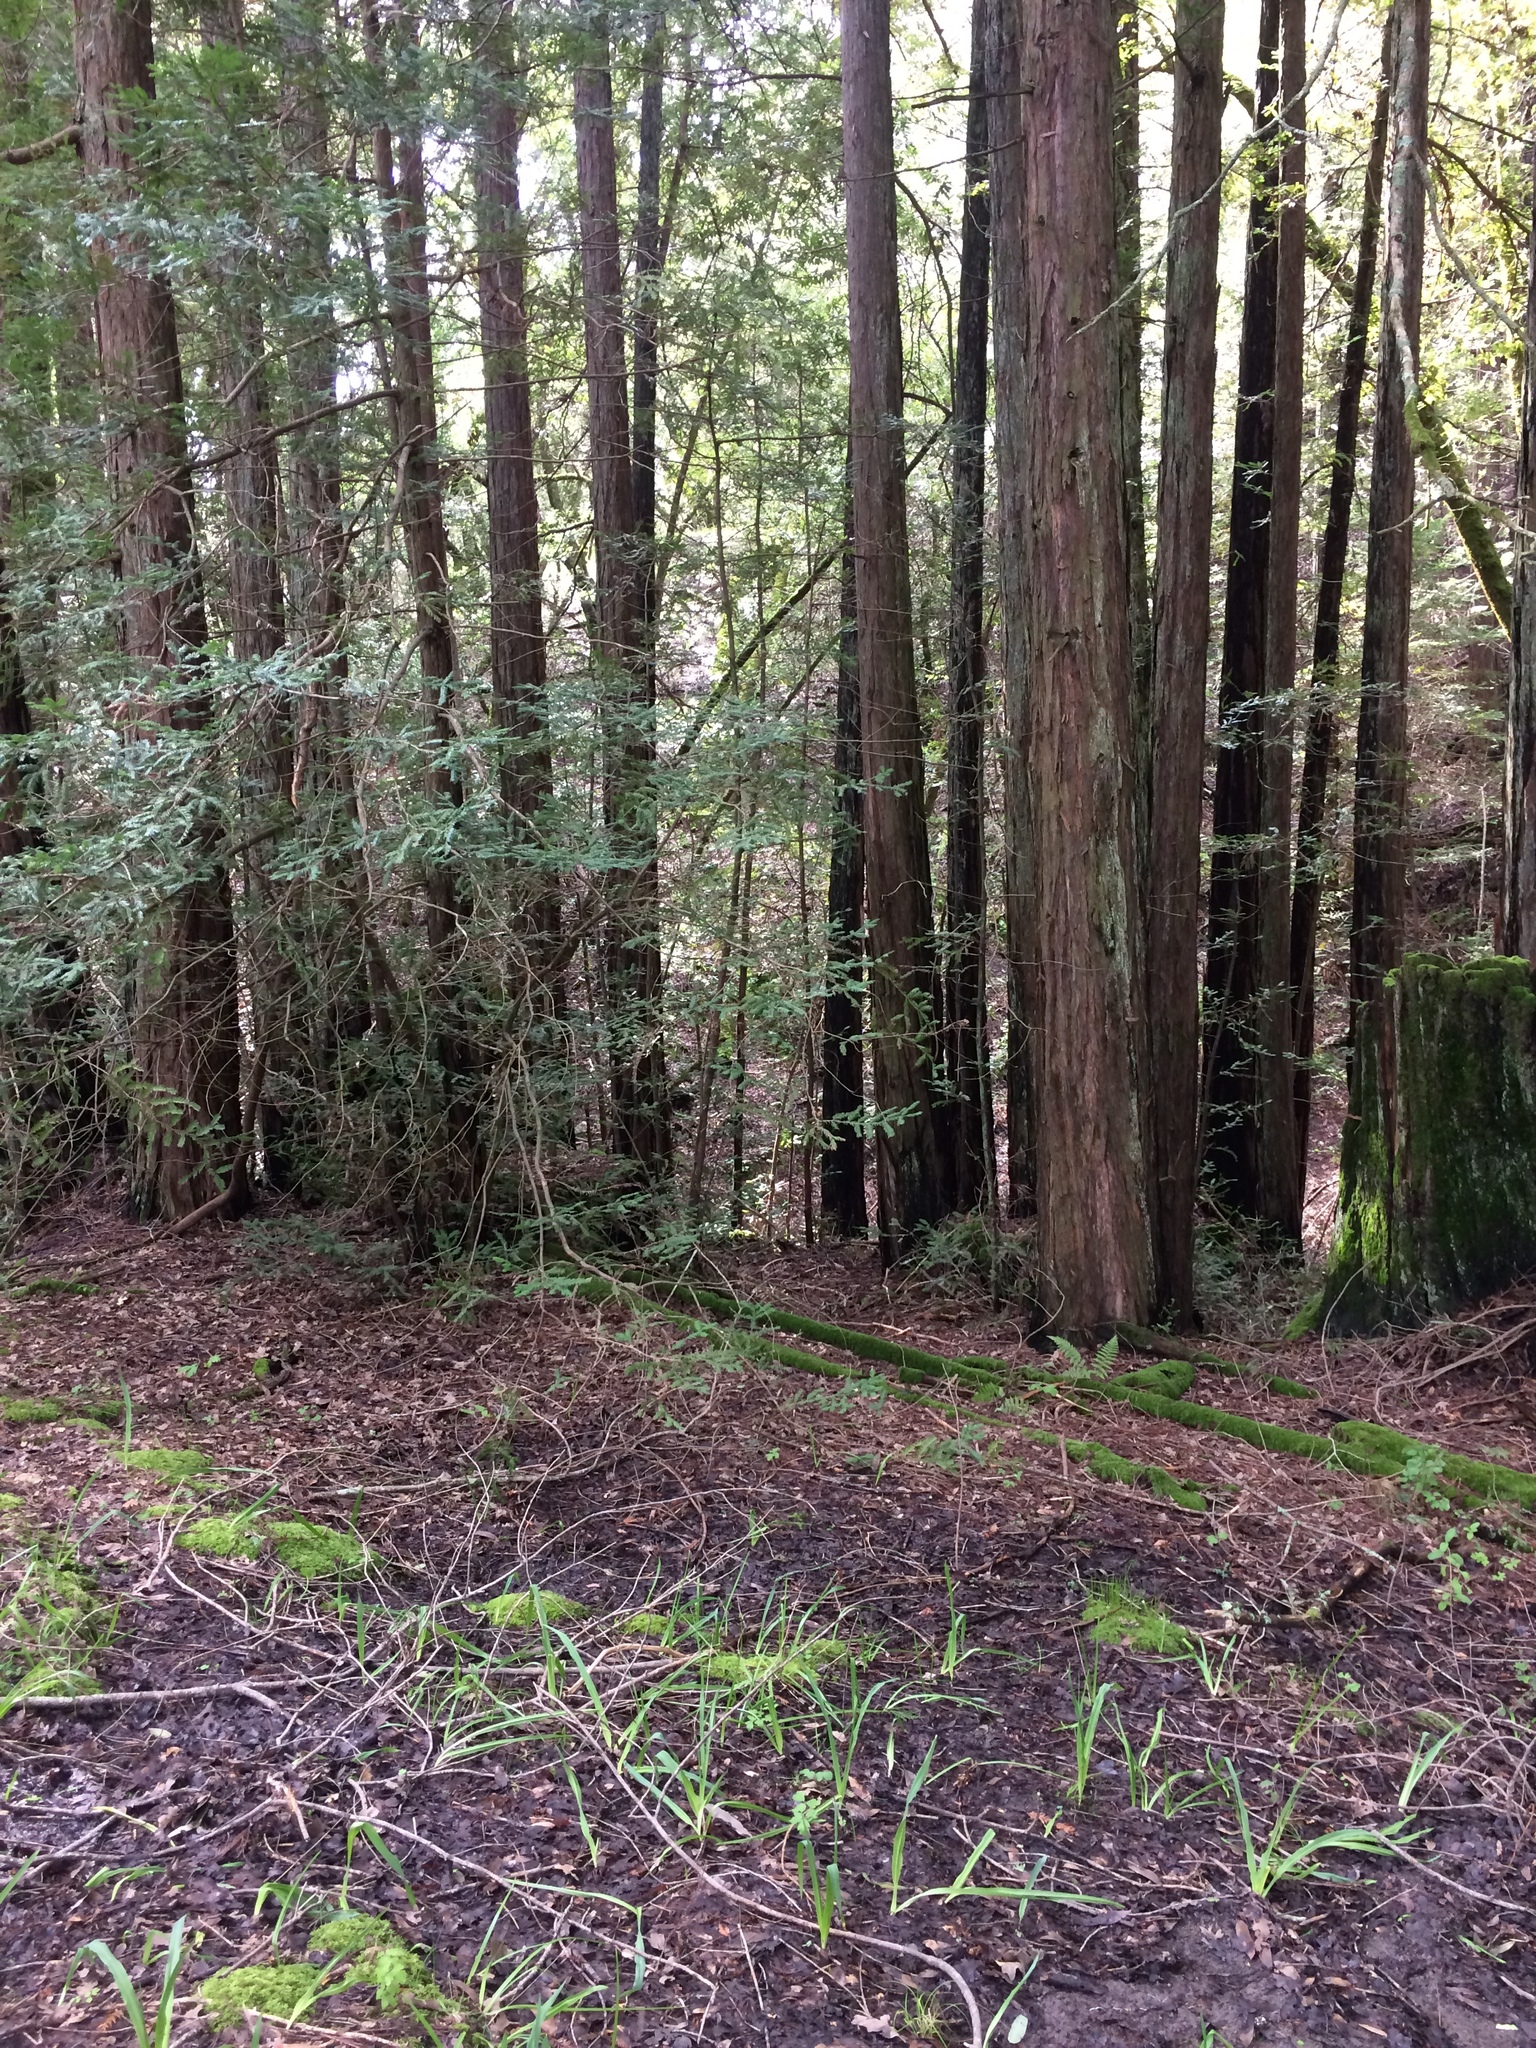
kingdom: Plantae
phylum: Tracheophyta
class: Pinopsida
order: Pinales
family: Cupressaceae
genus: Sequoia
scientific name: Sequoia sempervirens
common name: Coast redwood
